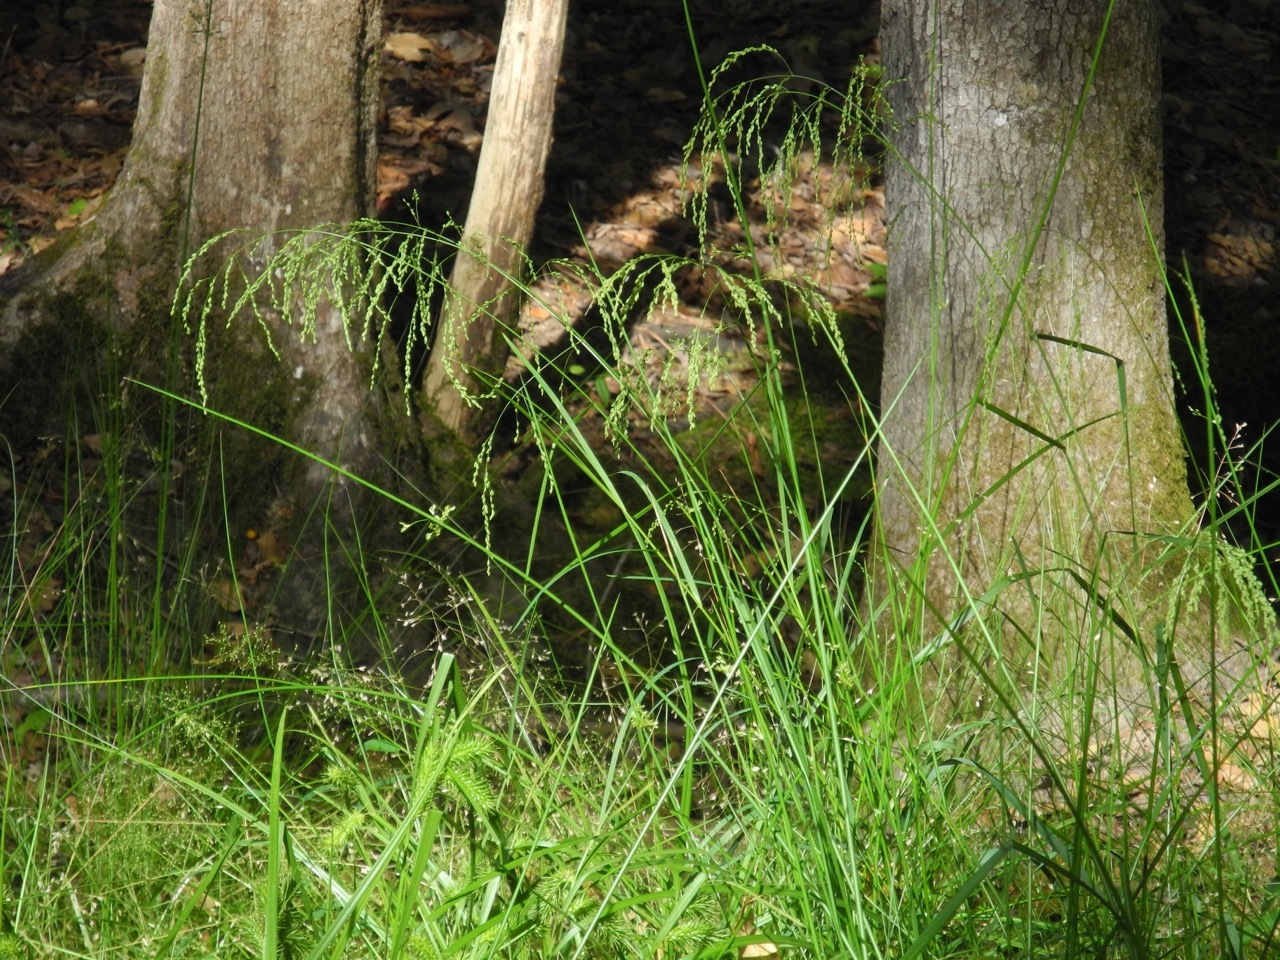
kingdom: Plantae
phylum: Tracheophyta
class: Liliopsida
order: Poales
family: Poaceae
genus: Glyceria
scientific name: Glyceria striata
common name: Fowl manna grass
